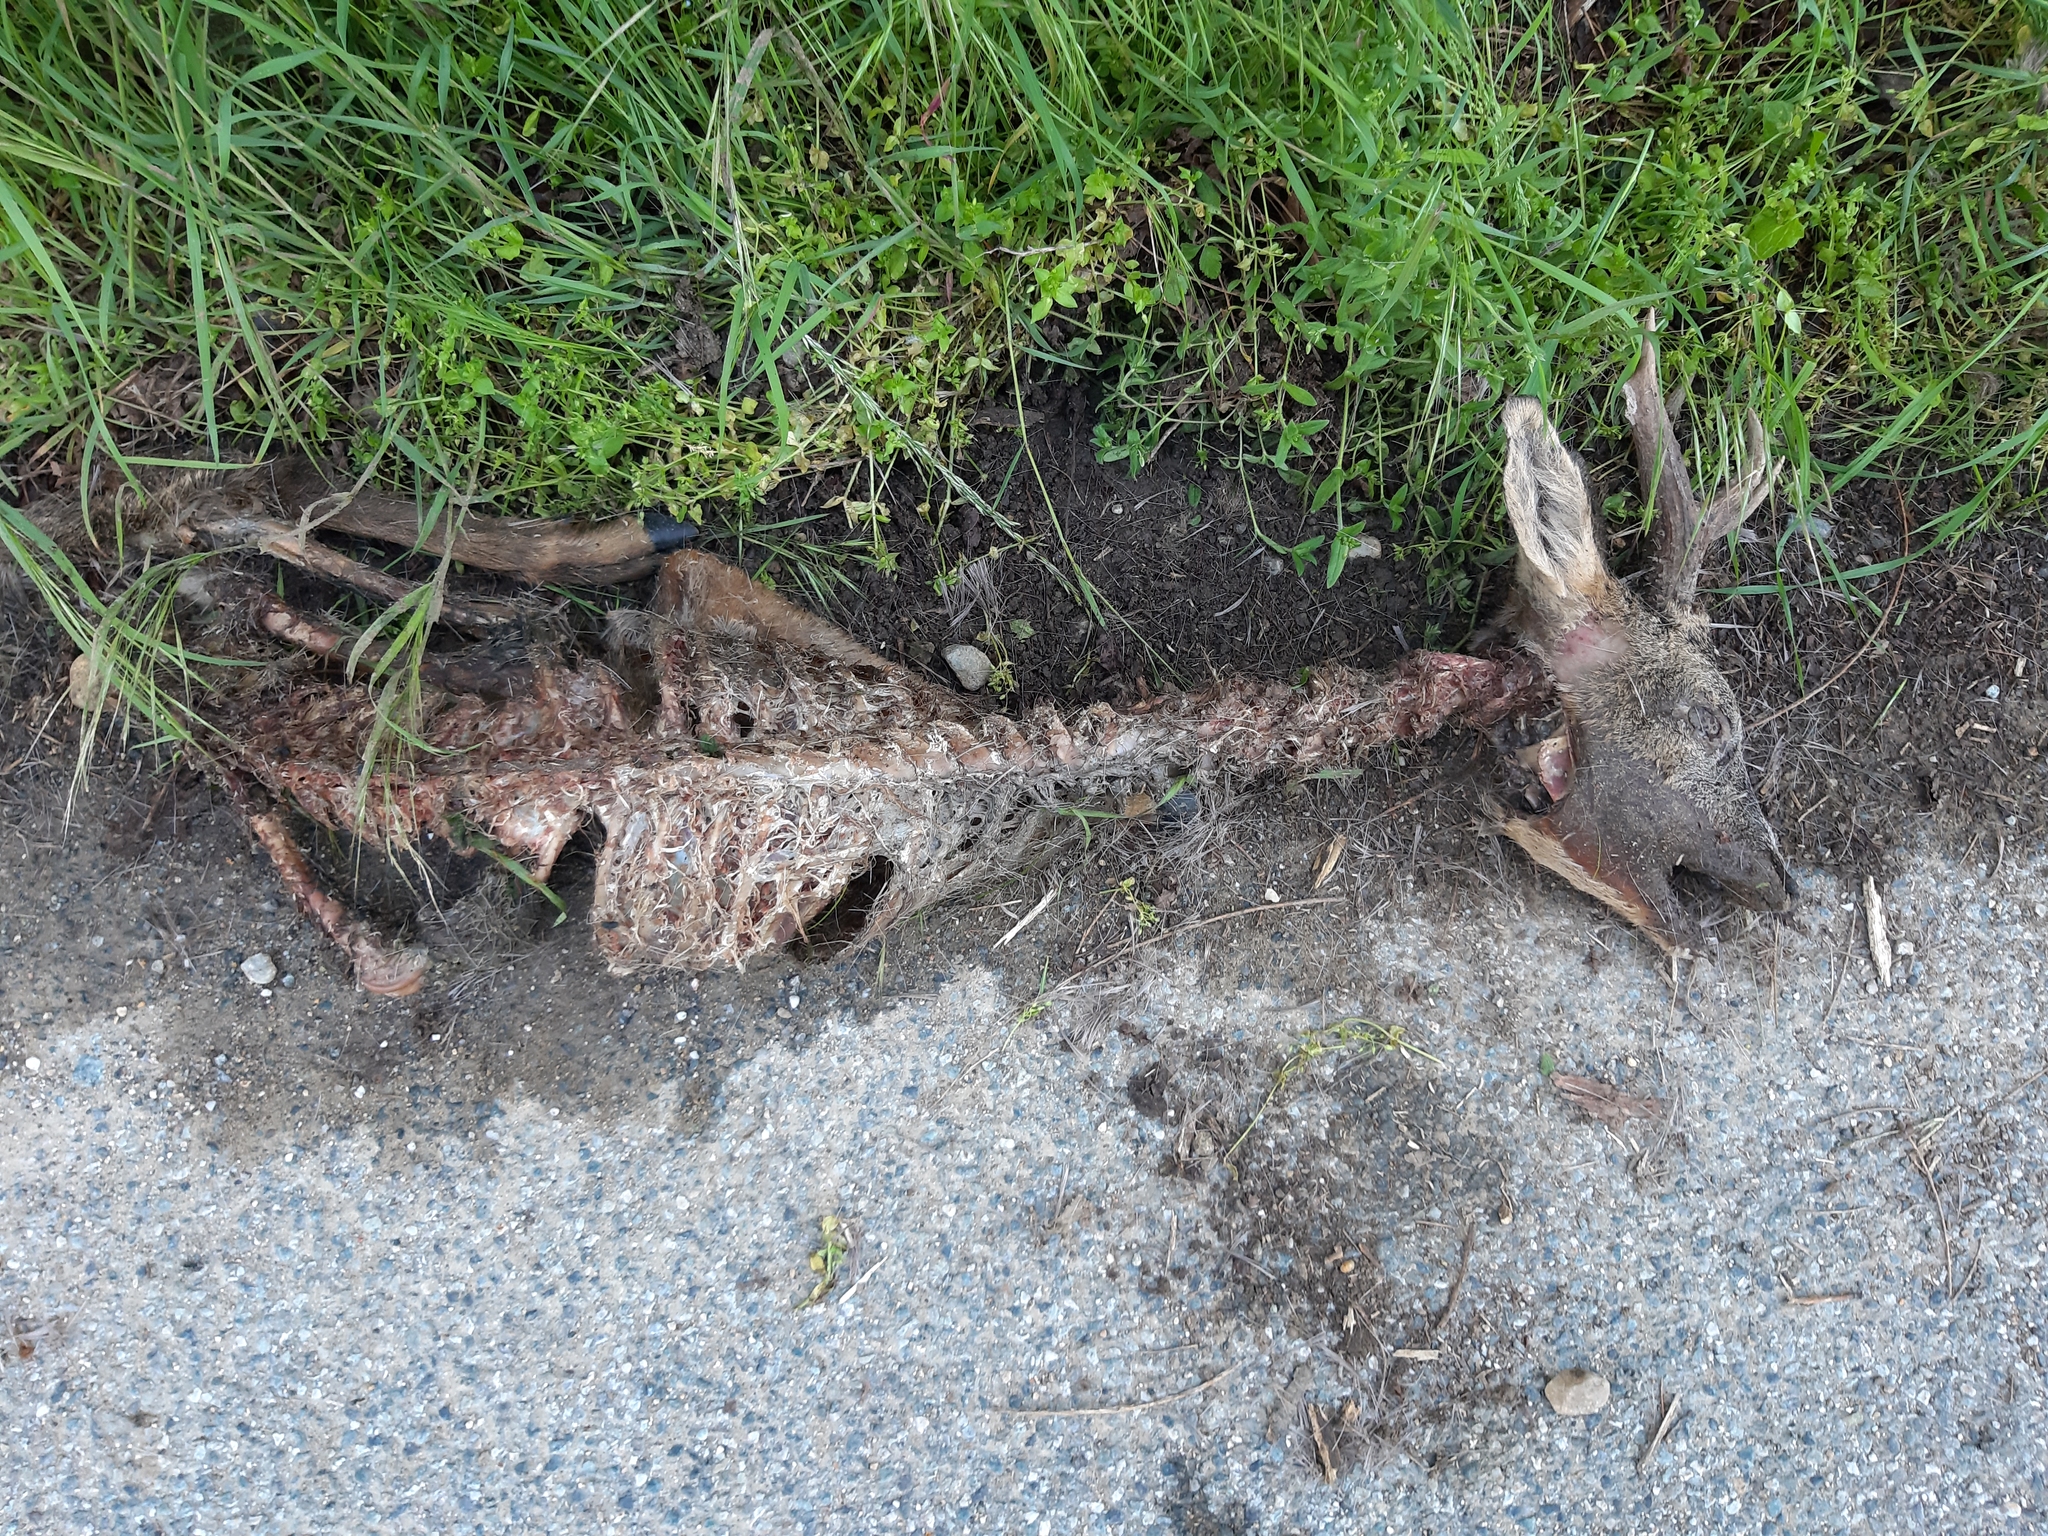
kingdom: Animalia
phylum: Chordata
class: Mammalia
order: Artiodactyla
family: Cervidae
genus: Capreolus
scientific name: Capreolus capreolus
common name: Western roe deer
